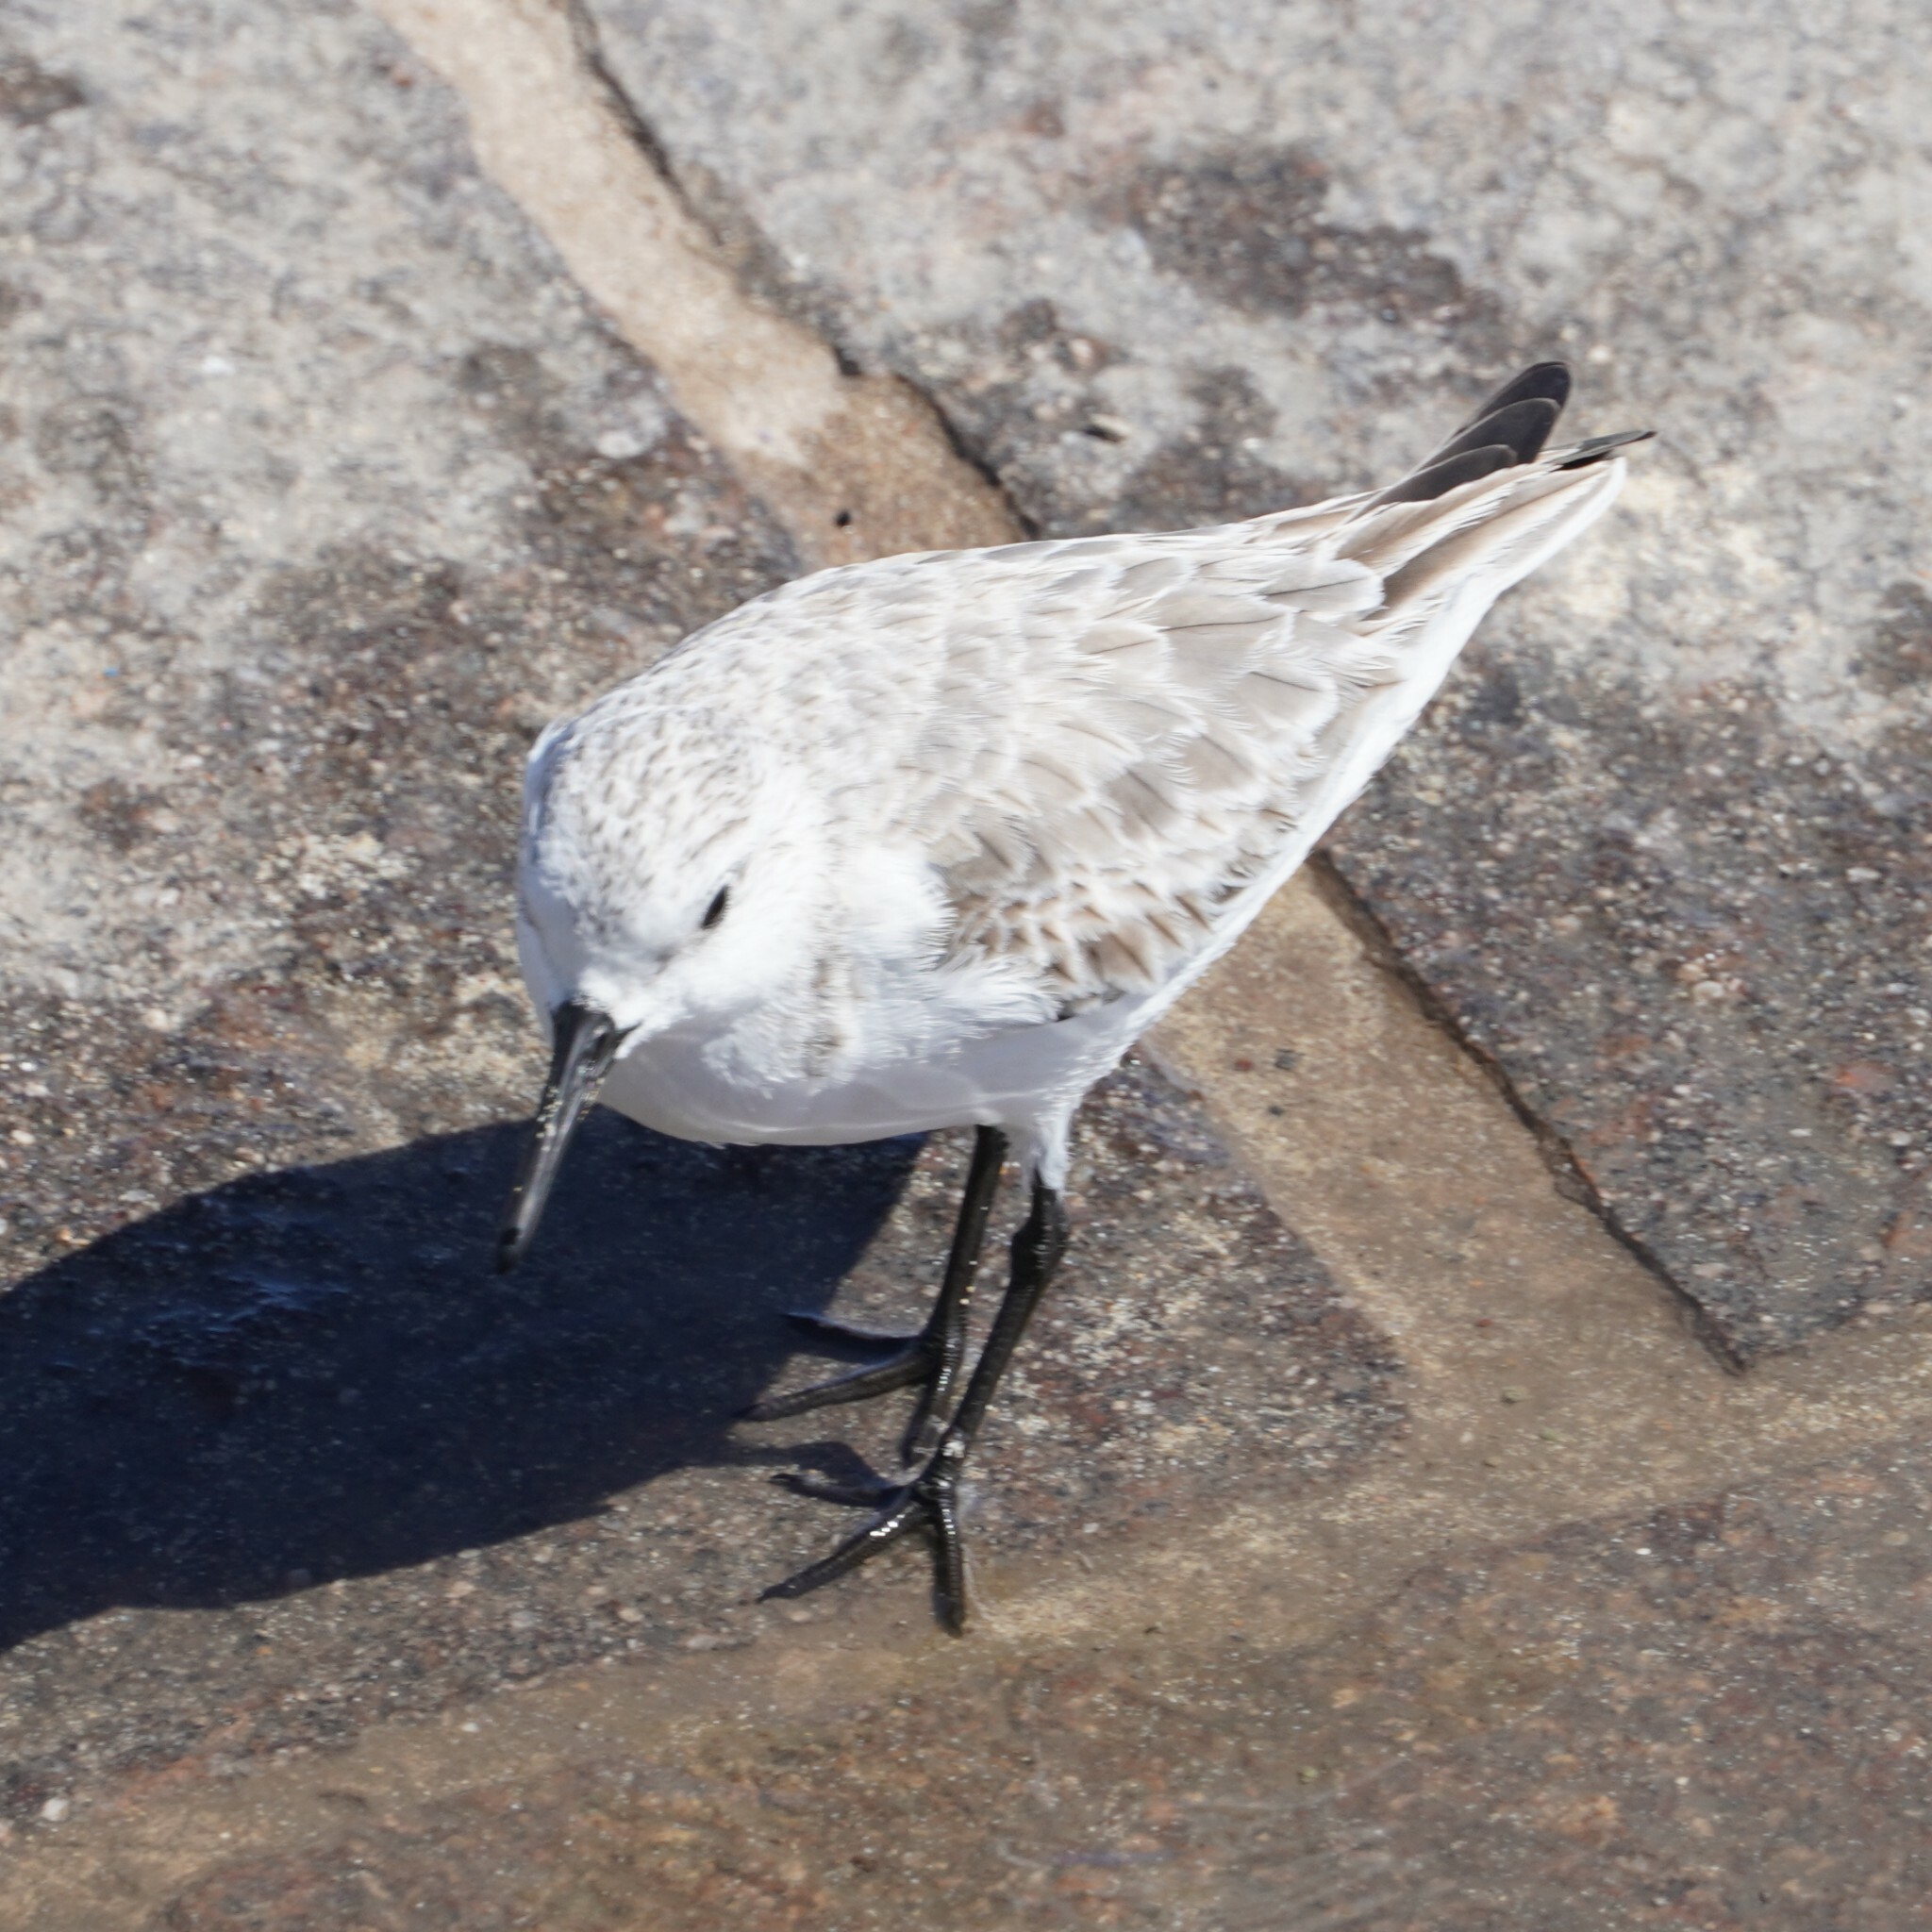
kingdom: Animalia
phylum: Chordata
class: Aves
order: Charadriiformes
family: Scolopacidae
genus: Calidris
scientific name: Calidris alba
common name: Sanderling
